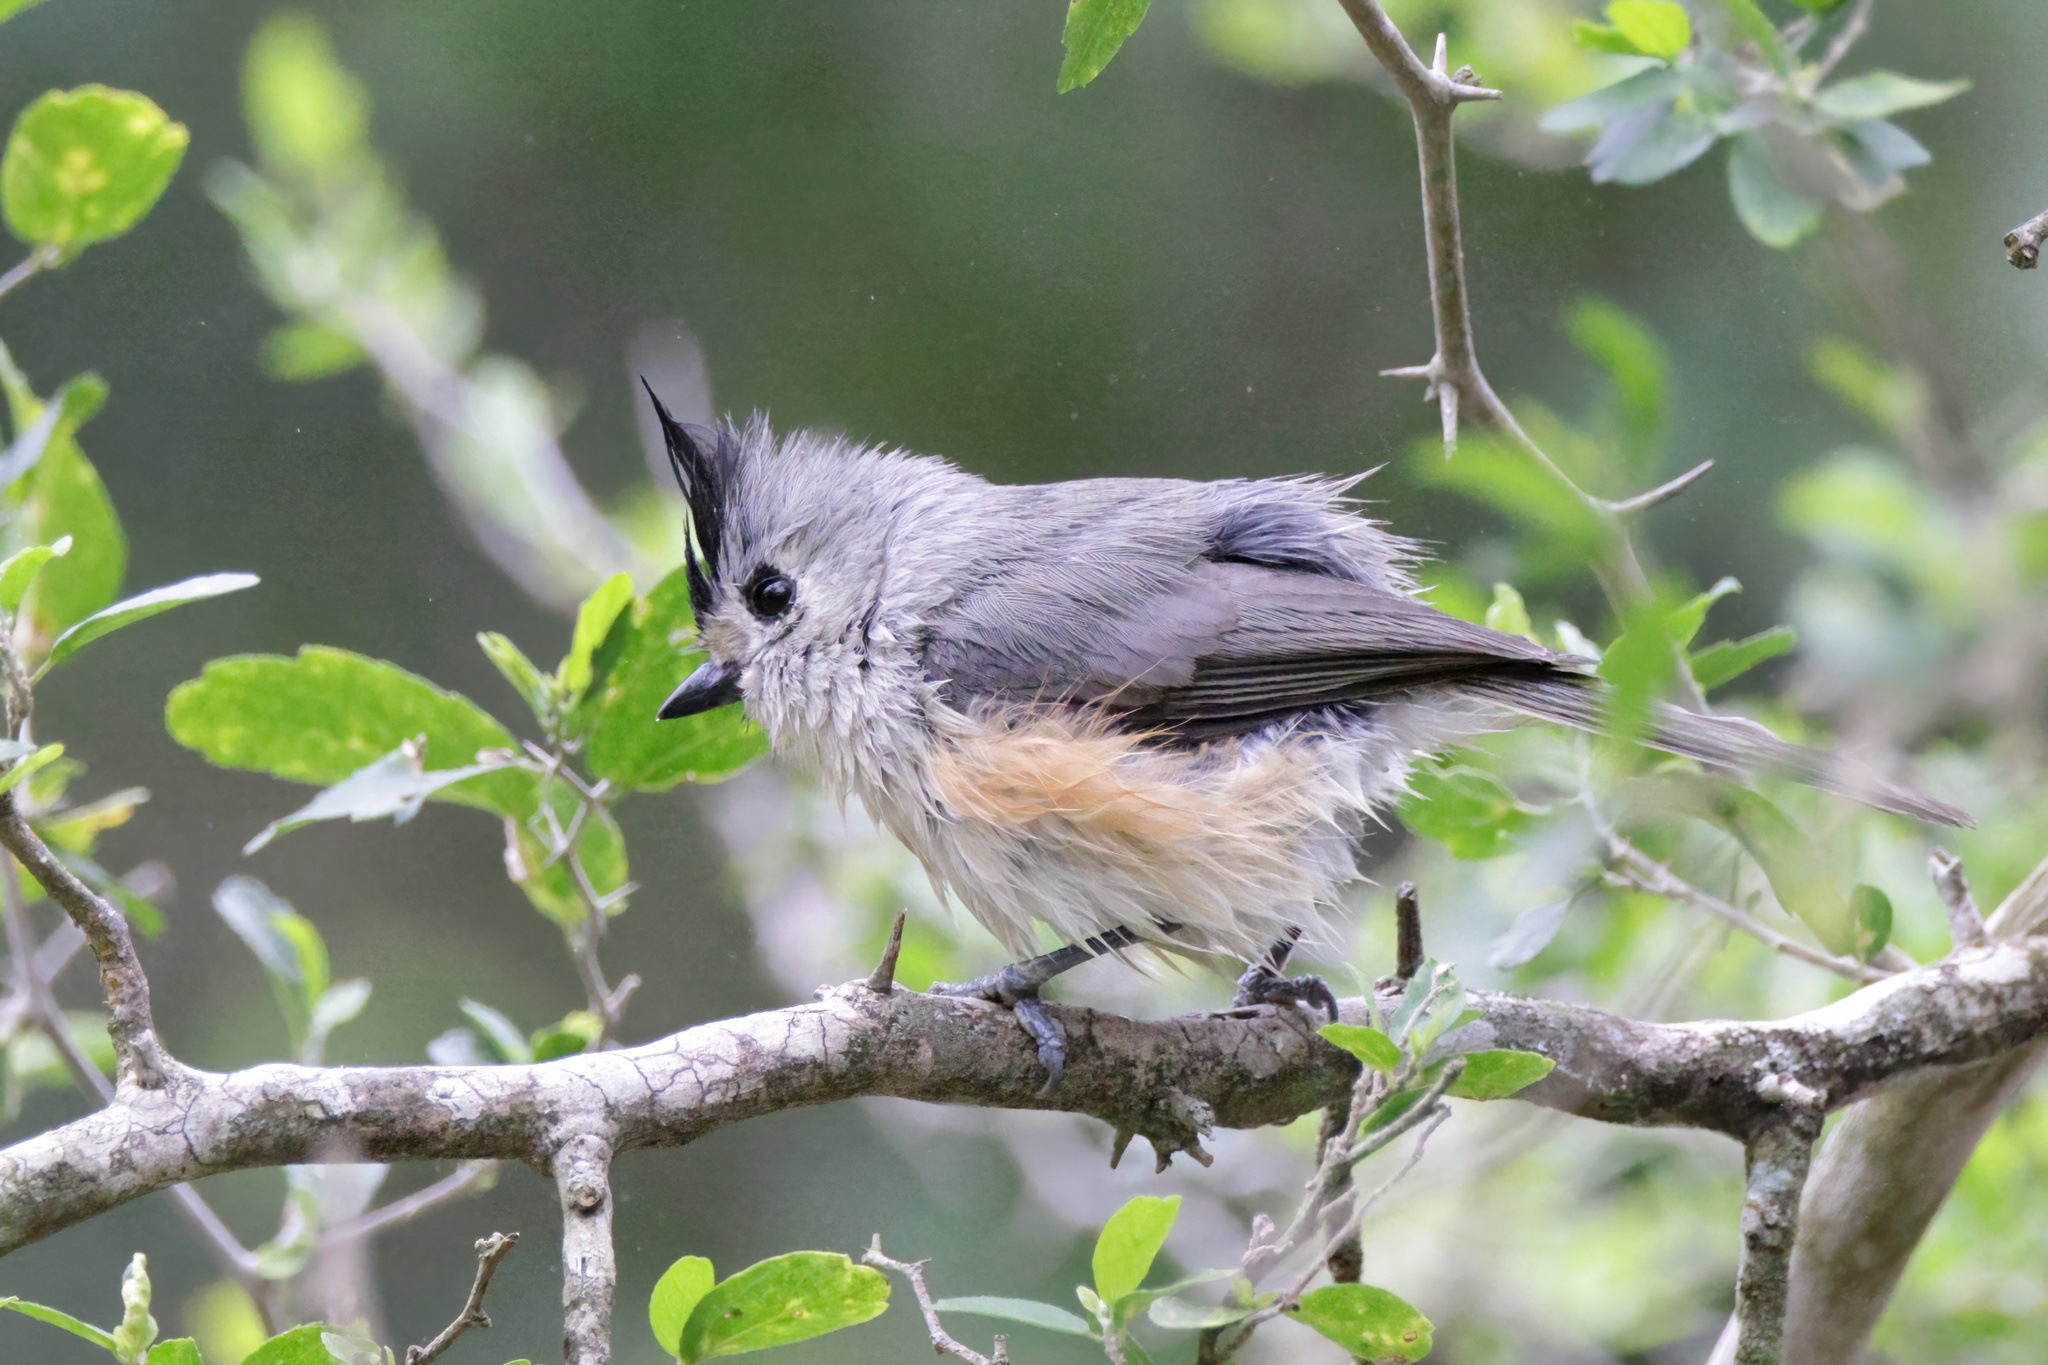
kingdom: Animalia
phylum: Chordata
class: Aves
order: Passeriformes
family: Paridae
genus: Baeolophus
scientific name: Baeolophus atricristatus
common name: Black-crested titmouse
